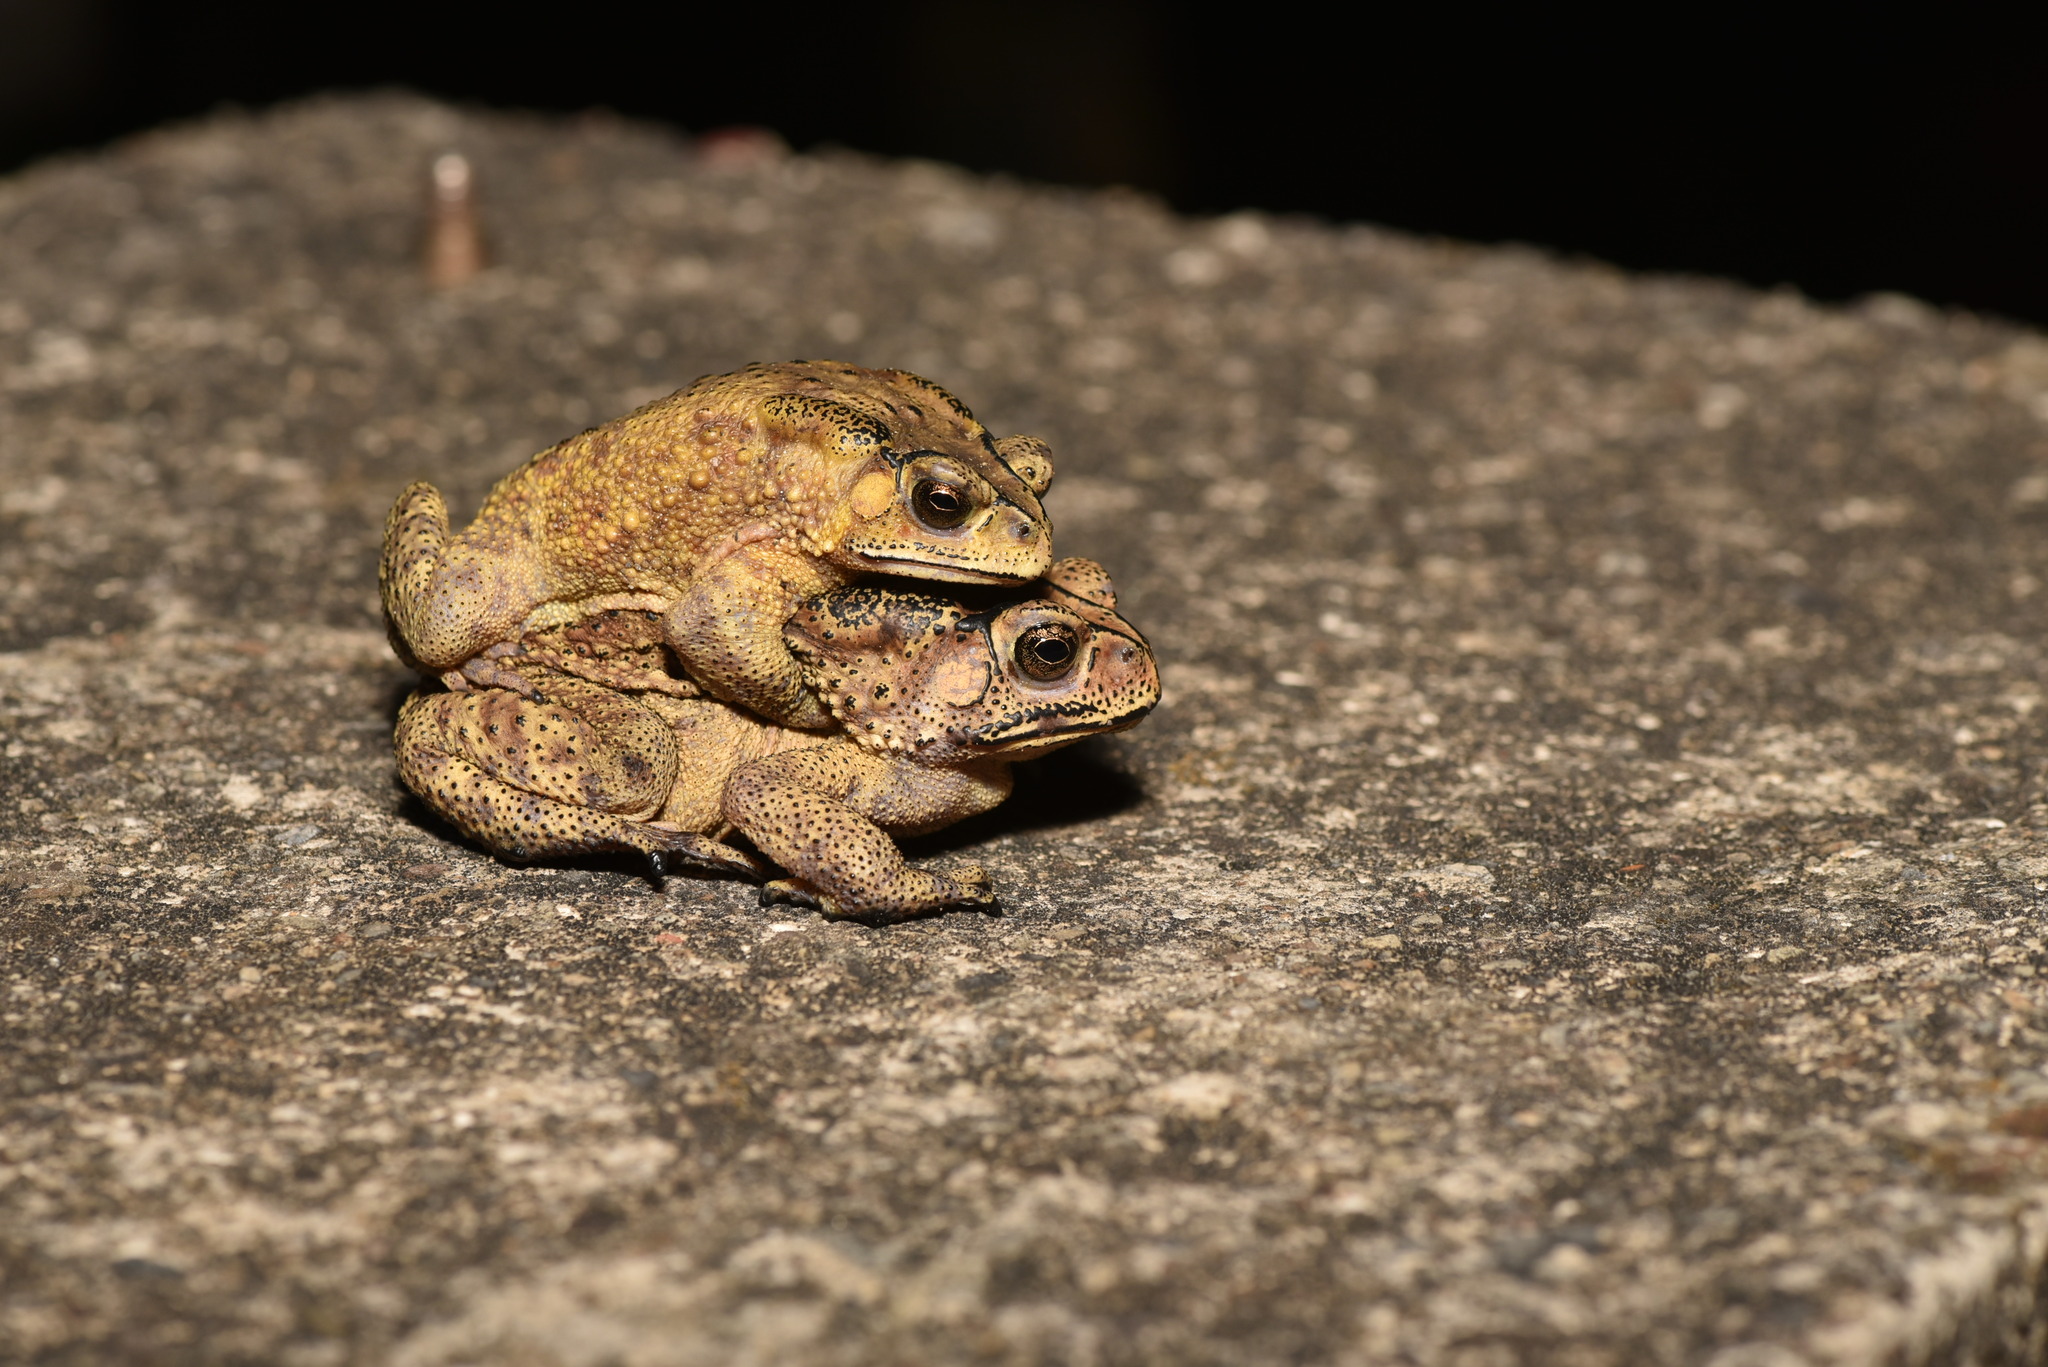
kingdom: Animalia
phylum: Chordata
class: Amphibia
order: Anura
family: Bufonidae
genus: Duttaphrynus
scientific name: Duttaphrynus melanostictus
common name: Common sunda toad
